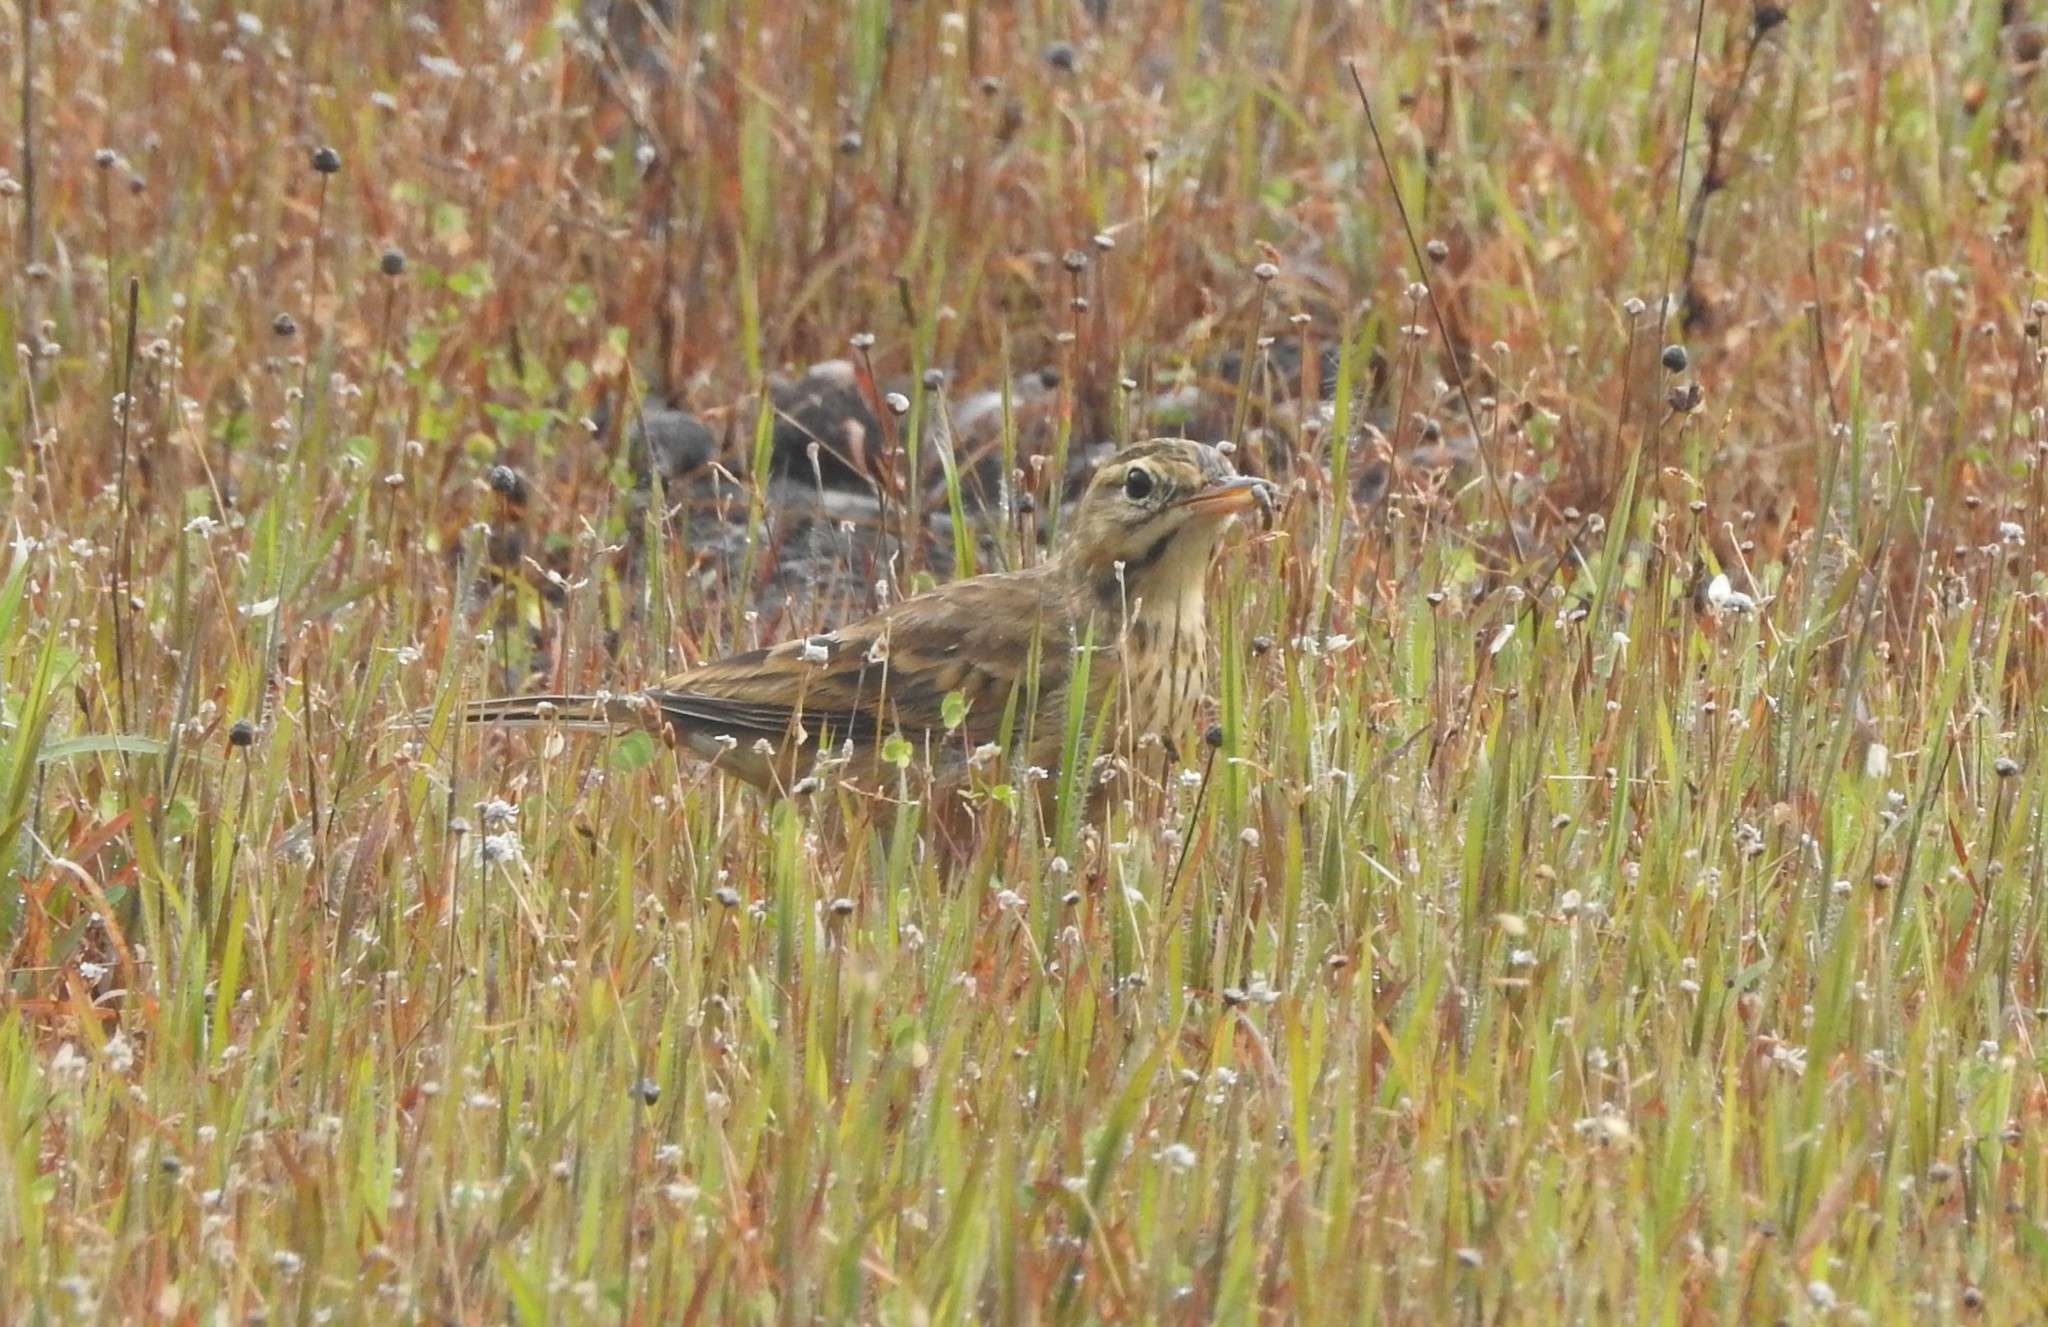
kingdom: Animalia
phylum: Chordata
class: Aves
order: Passeriformes
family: Motacillidae
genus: Anthus
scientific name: Anthus rufulus
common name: Paddyfield pipit
